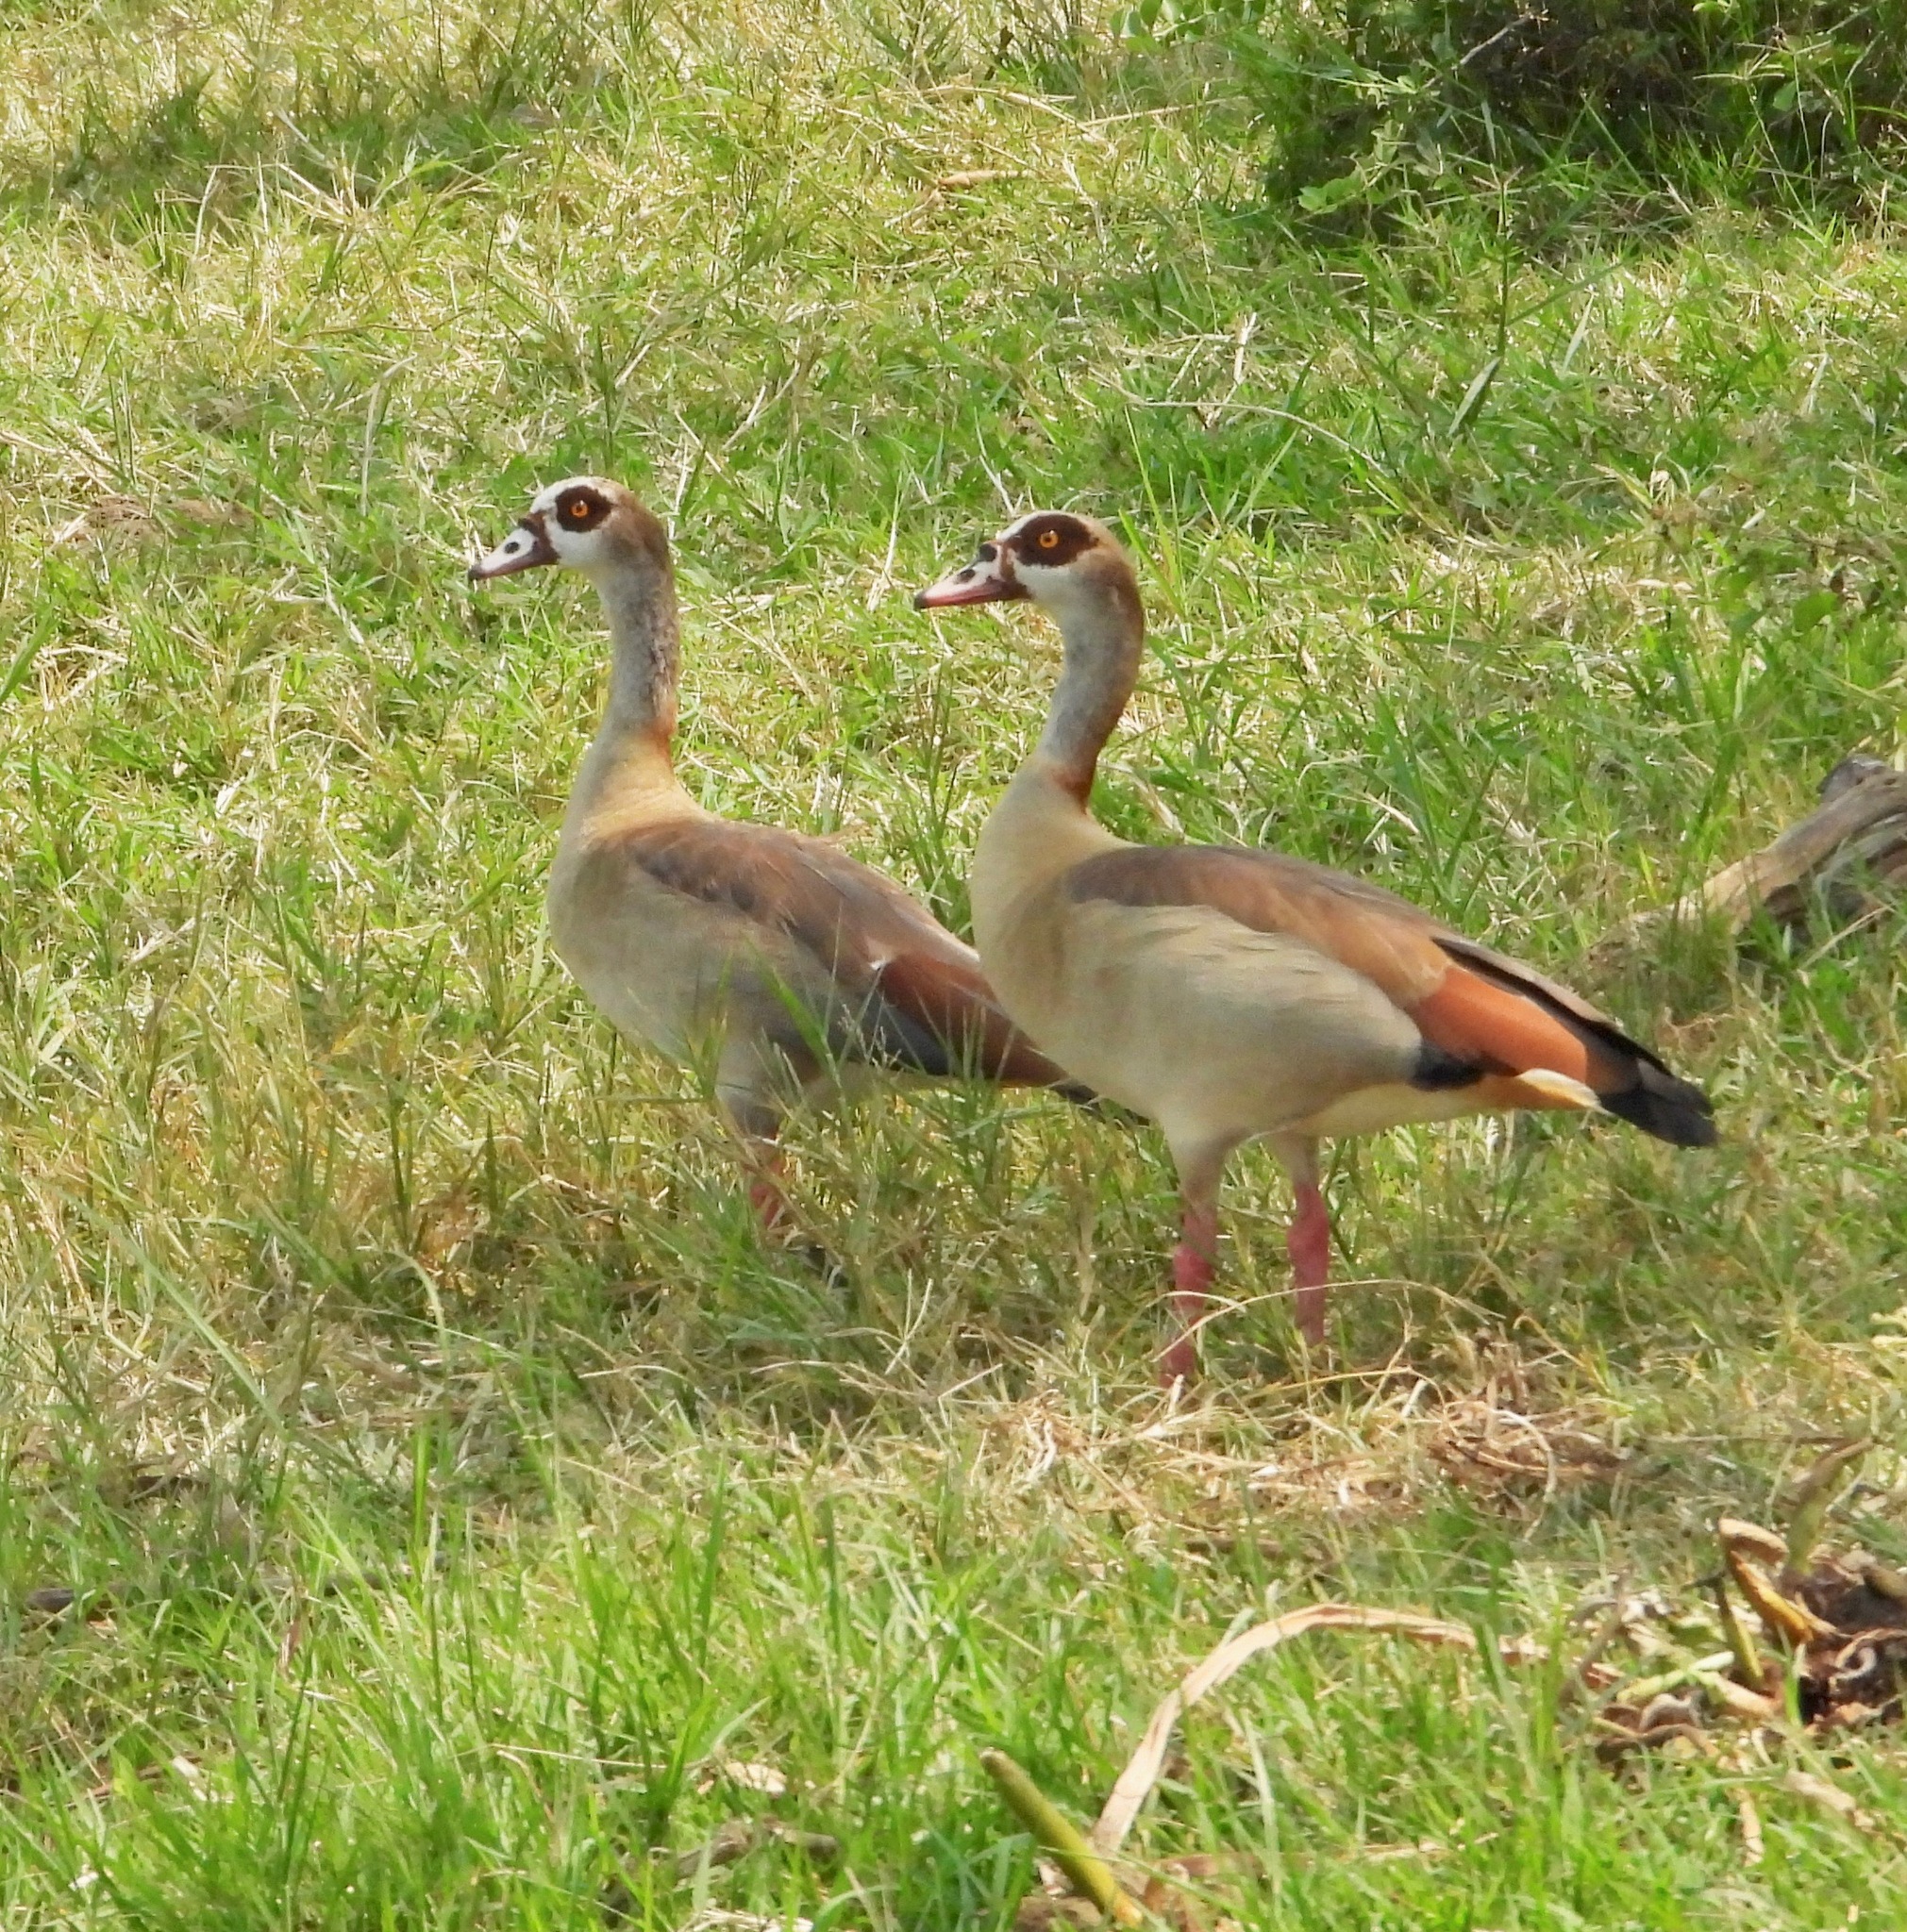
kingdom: Animalia
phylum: Chordata
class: Aves
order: Anseriformes
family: Anatidae
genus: Alopochen
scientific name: Alopochen aegyptiaca
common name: Egyptian goose
